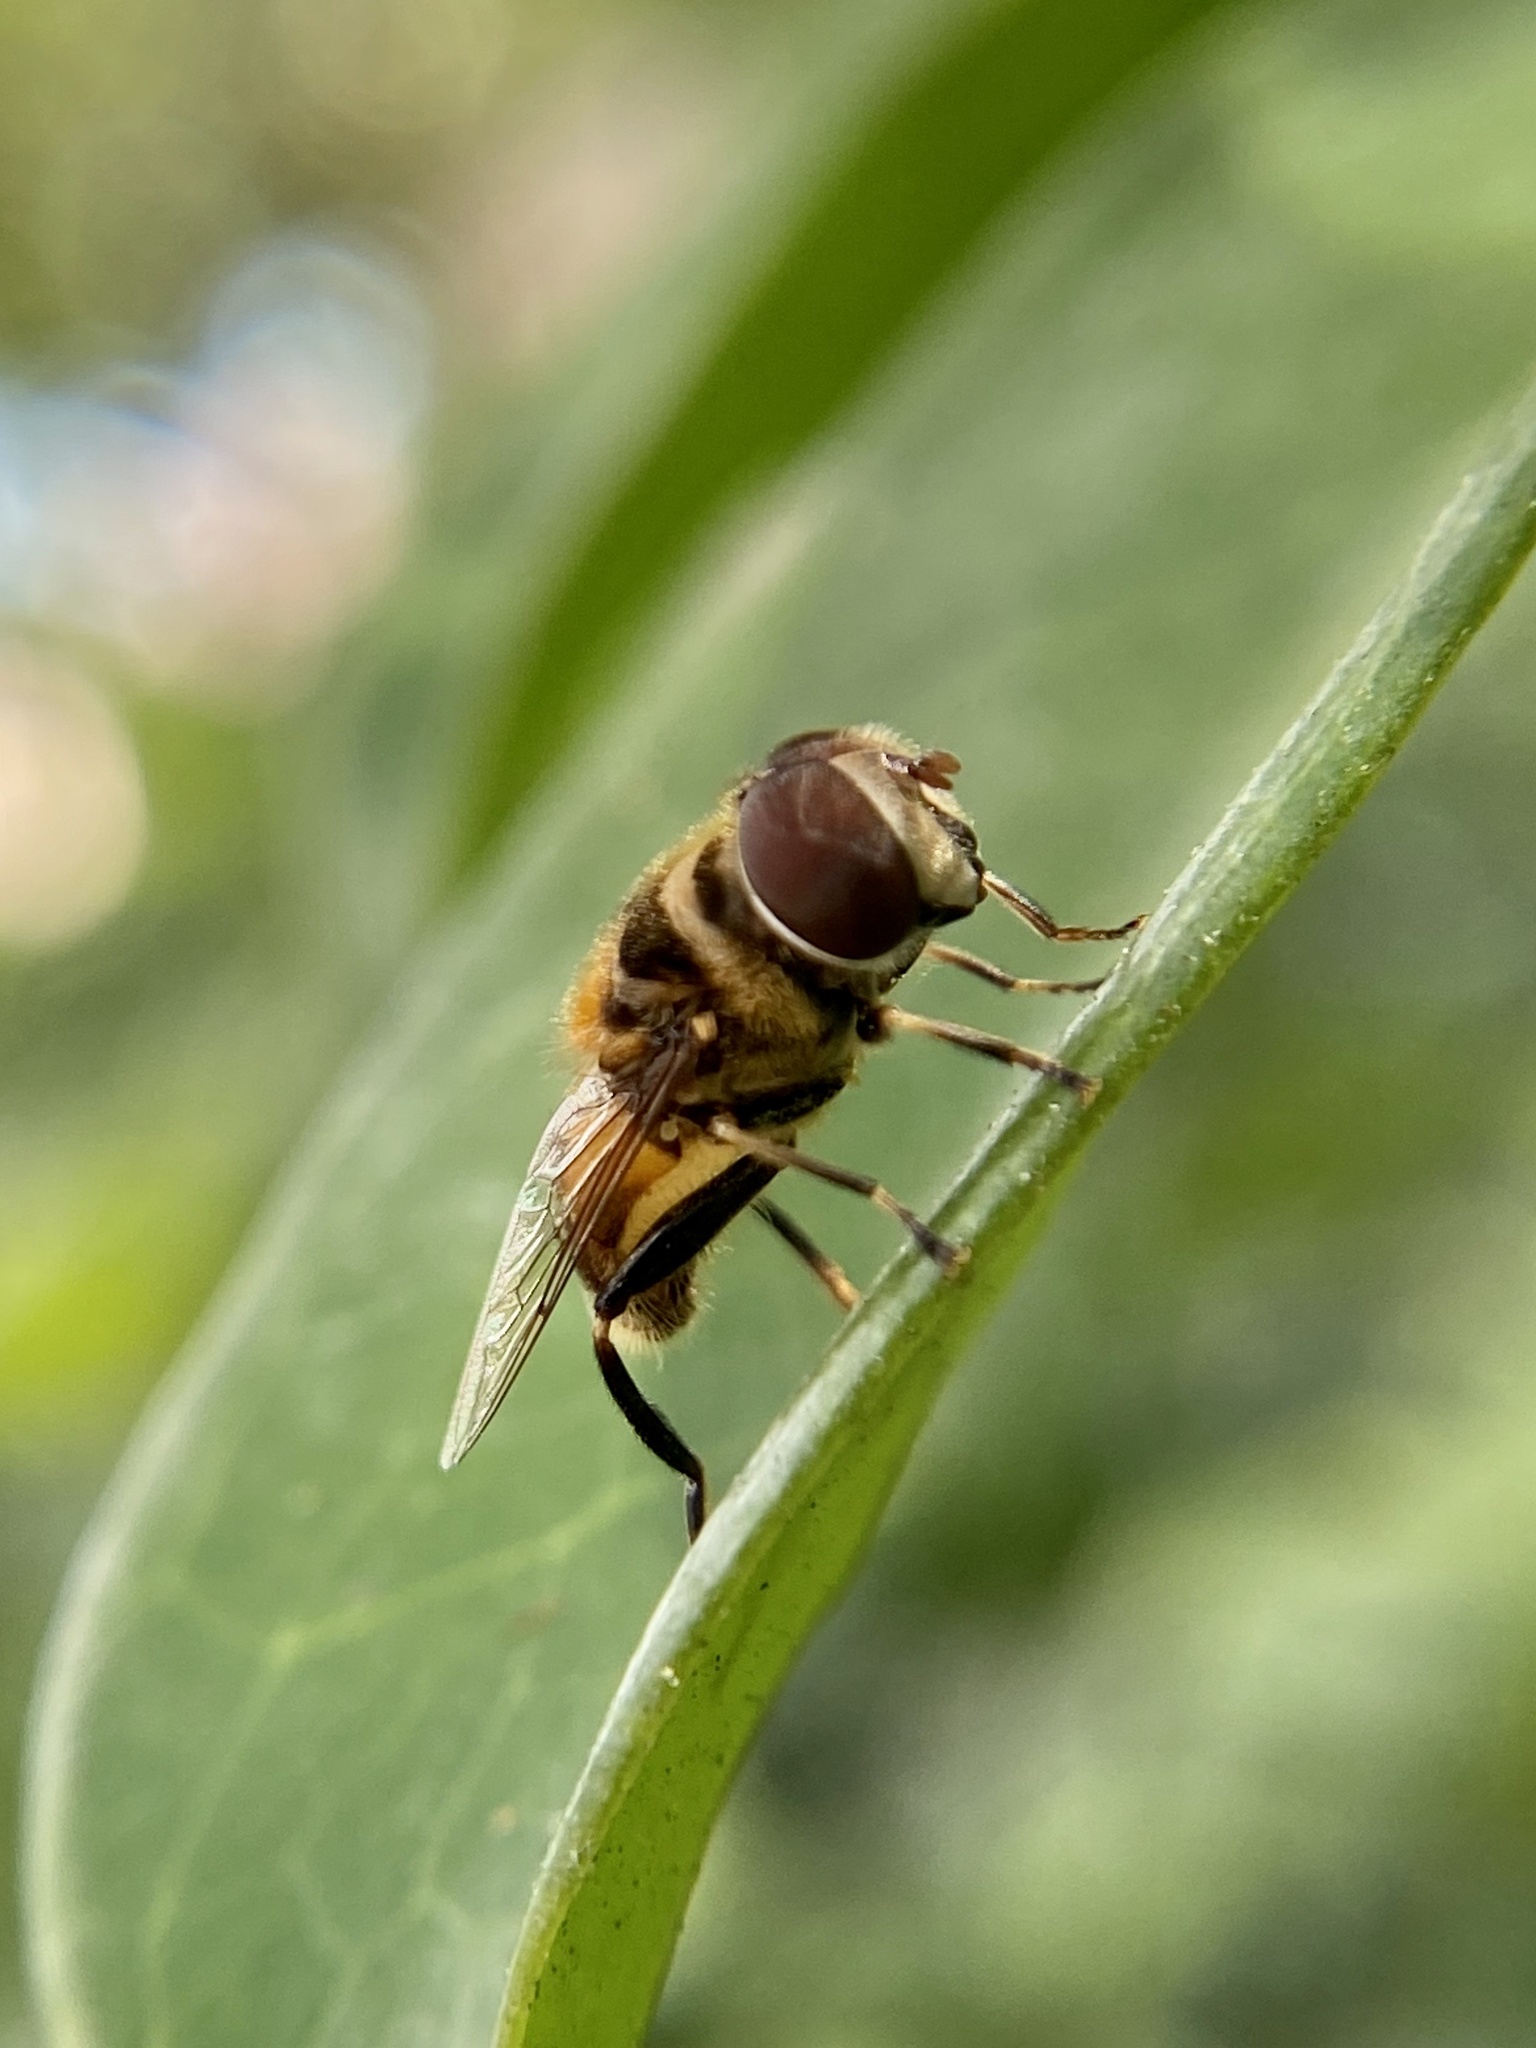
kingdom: Animalia
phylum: Arthropoda
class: Insecta
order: Diptera
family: Syrphidae
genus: Palpada
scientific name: Palpada agrorum
